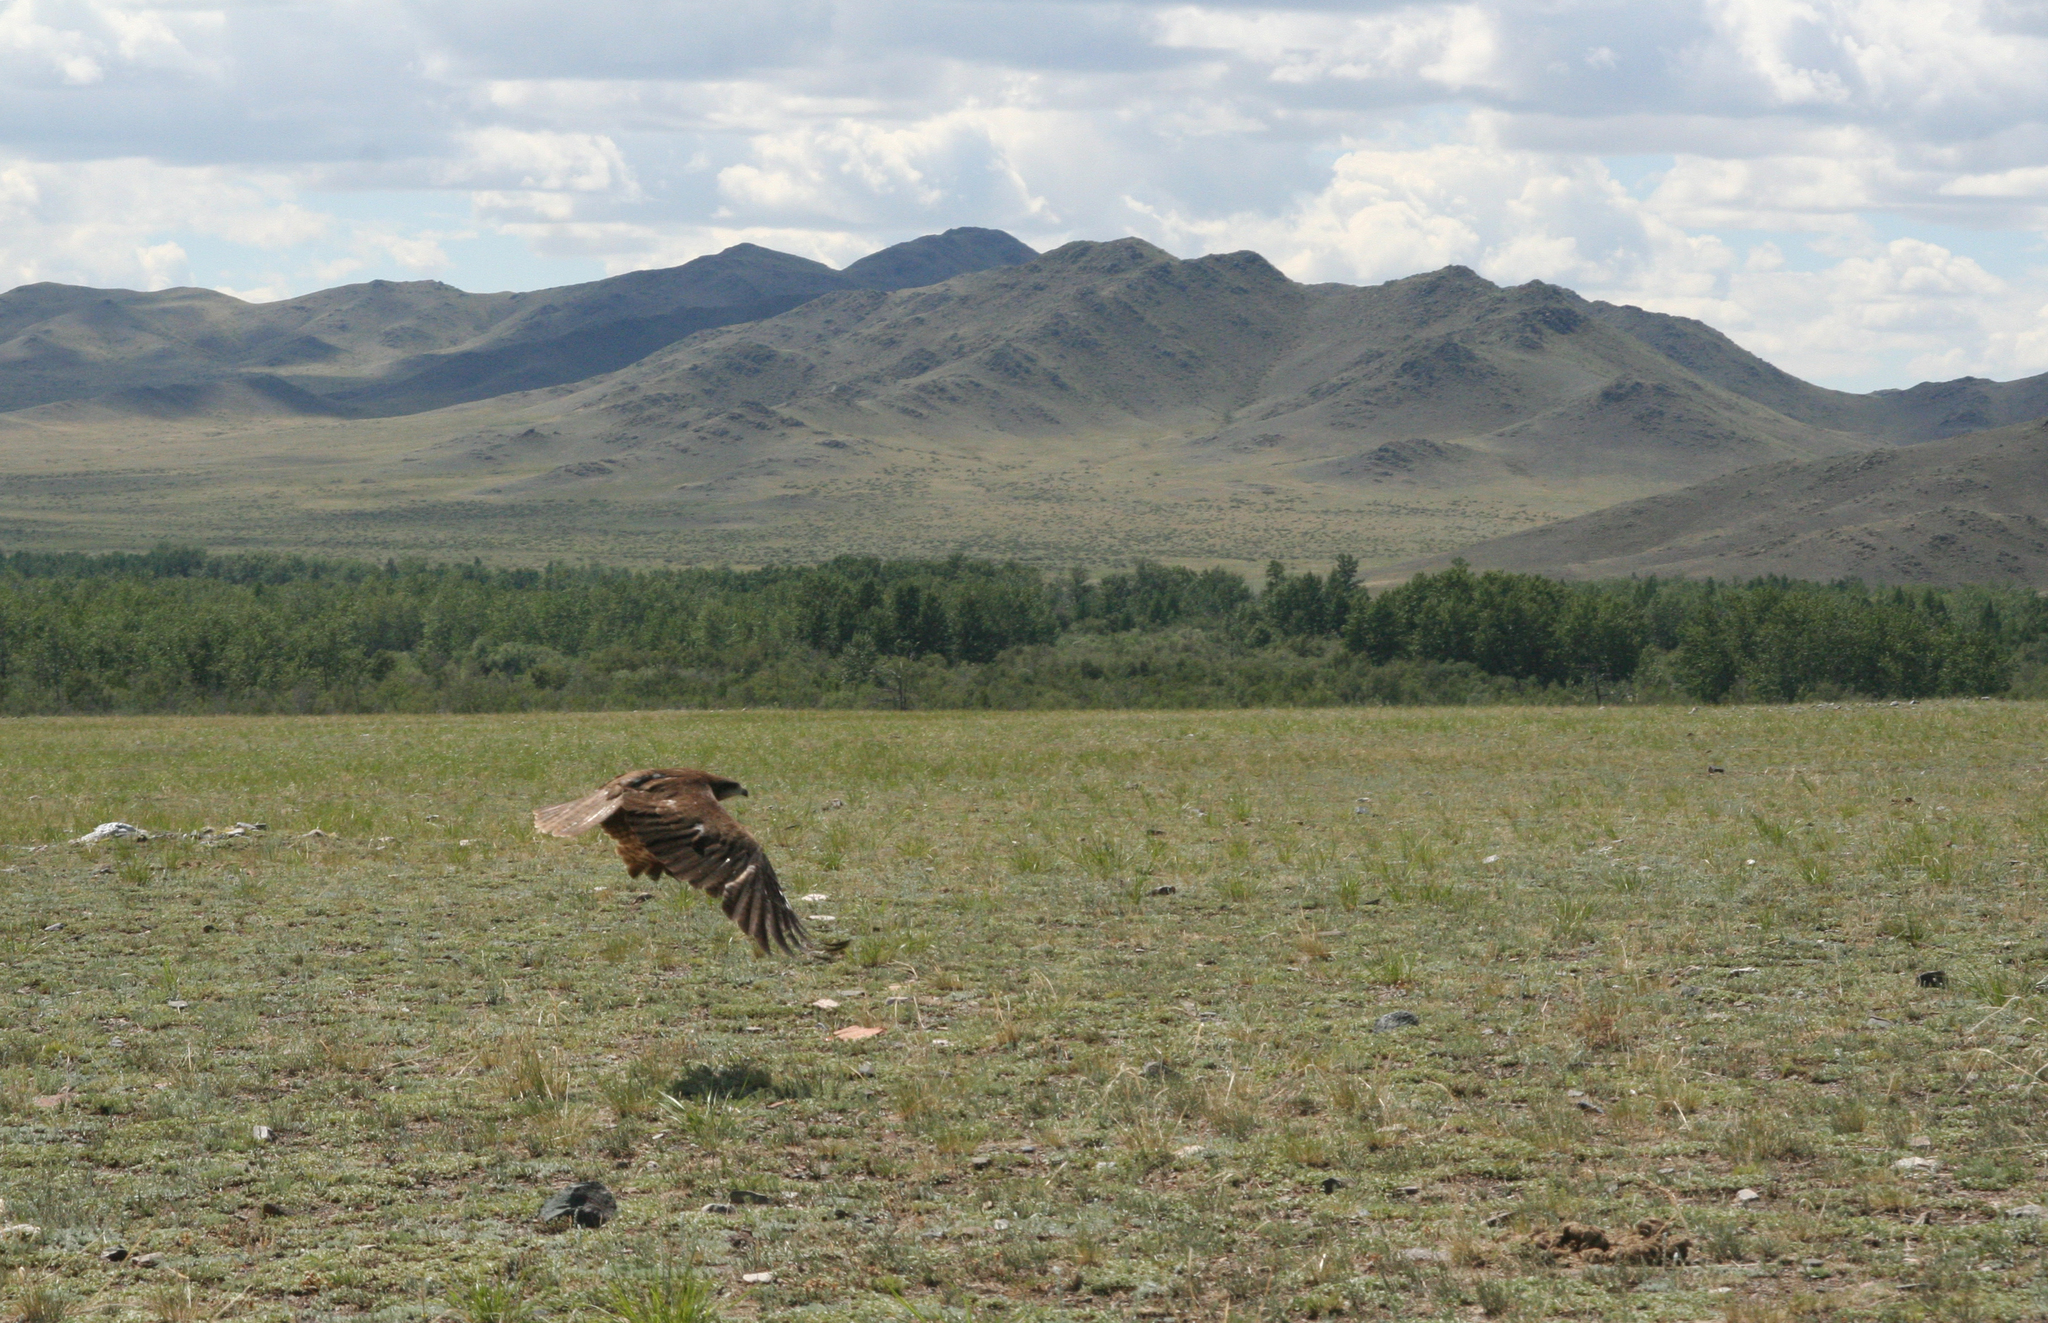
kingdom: Animalia
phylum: Chordata
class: Aves
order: Accipitriformes
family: Accipitridae
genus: Milvus
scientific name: Milvus migrans
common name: Black kite
